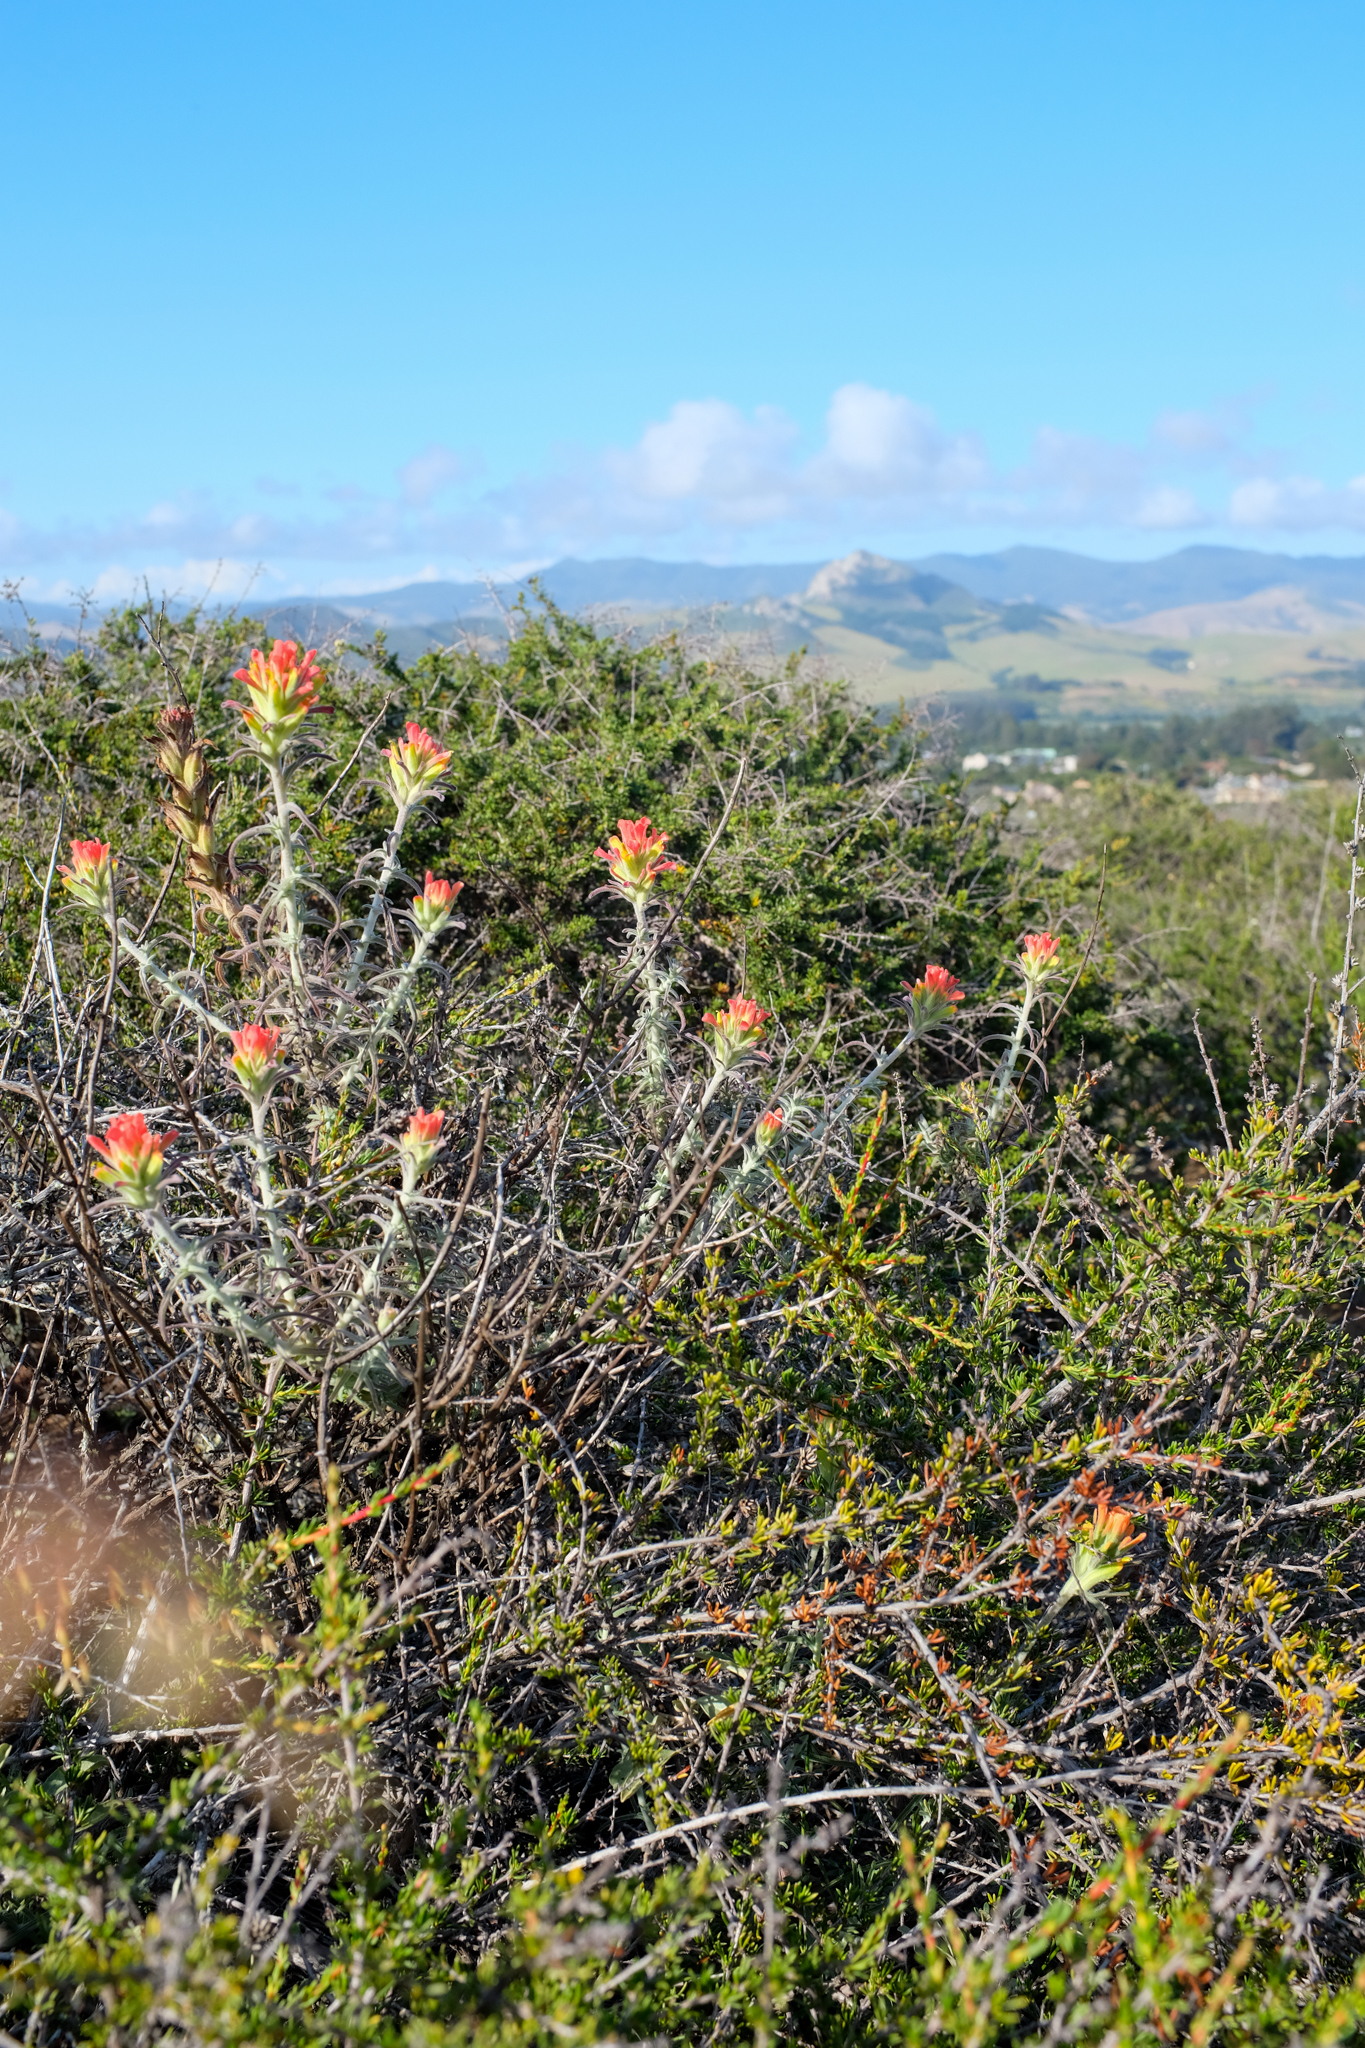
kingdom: Plantae
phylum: Tracheophyta
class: Magnoliopsida
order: Lamiales
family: Orobanchaceae
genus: Castilleja
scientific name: Castilleja foliolosa
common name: Woolly indian paintbrush
